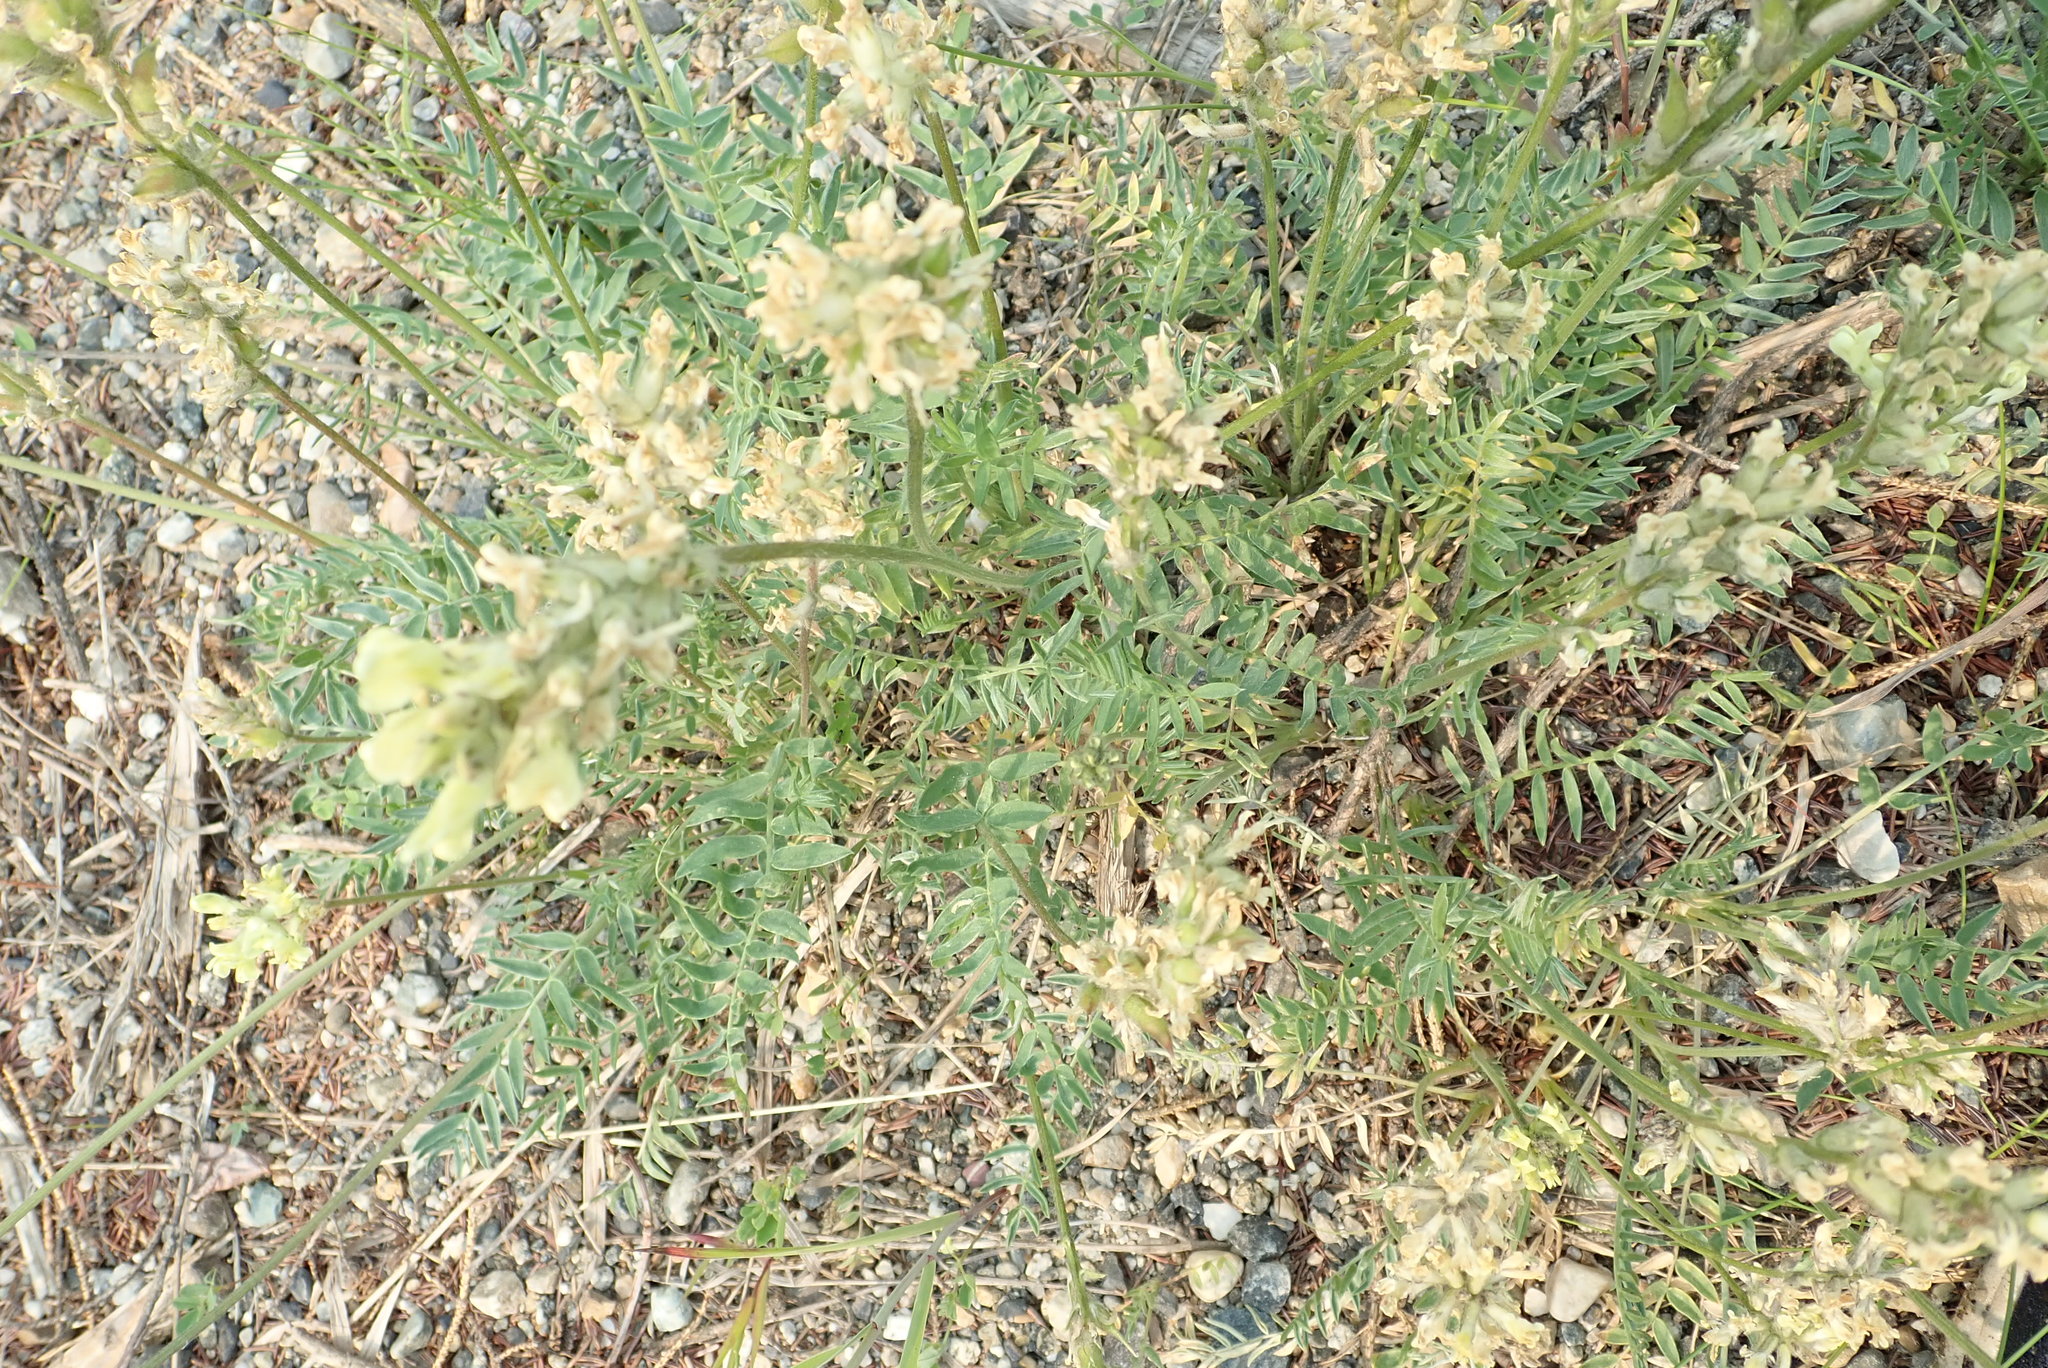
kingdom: Plantae
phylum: Tracheophyta
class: Magnoliopsida
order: Fabales
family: Fabaceae
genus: Oxytropis
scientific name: Oxytropis campestris
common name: Field locoweed
